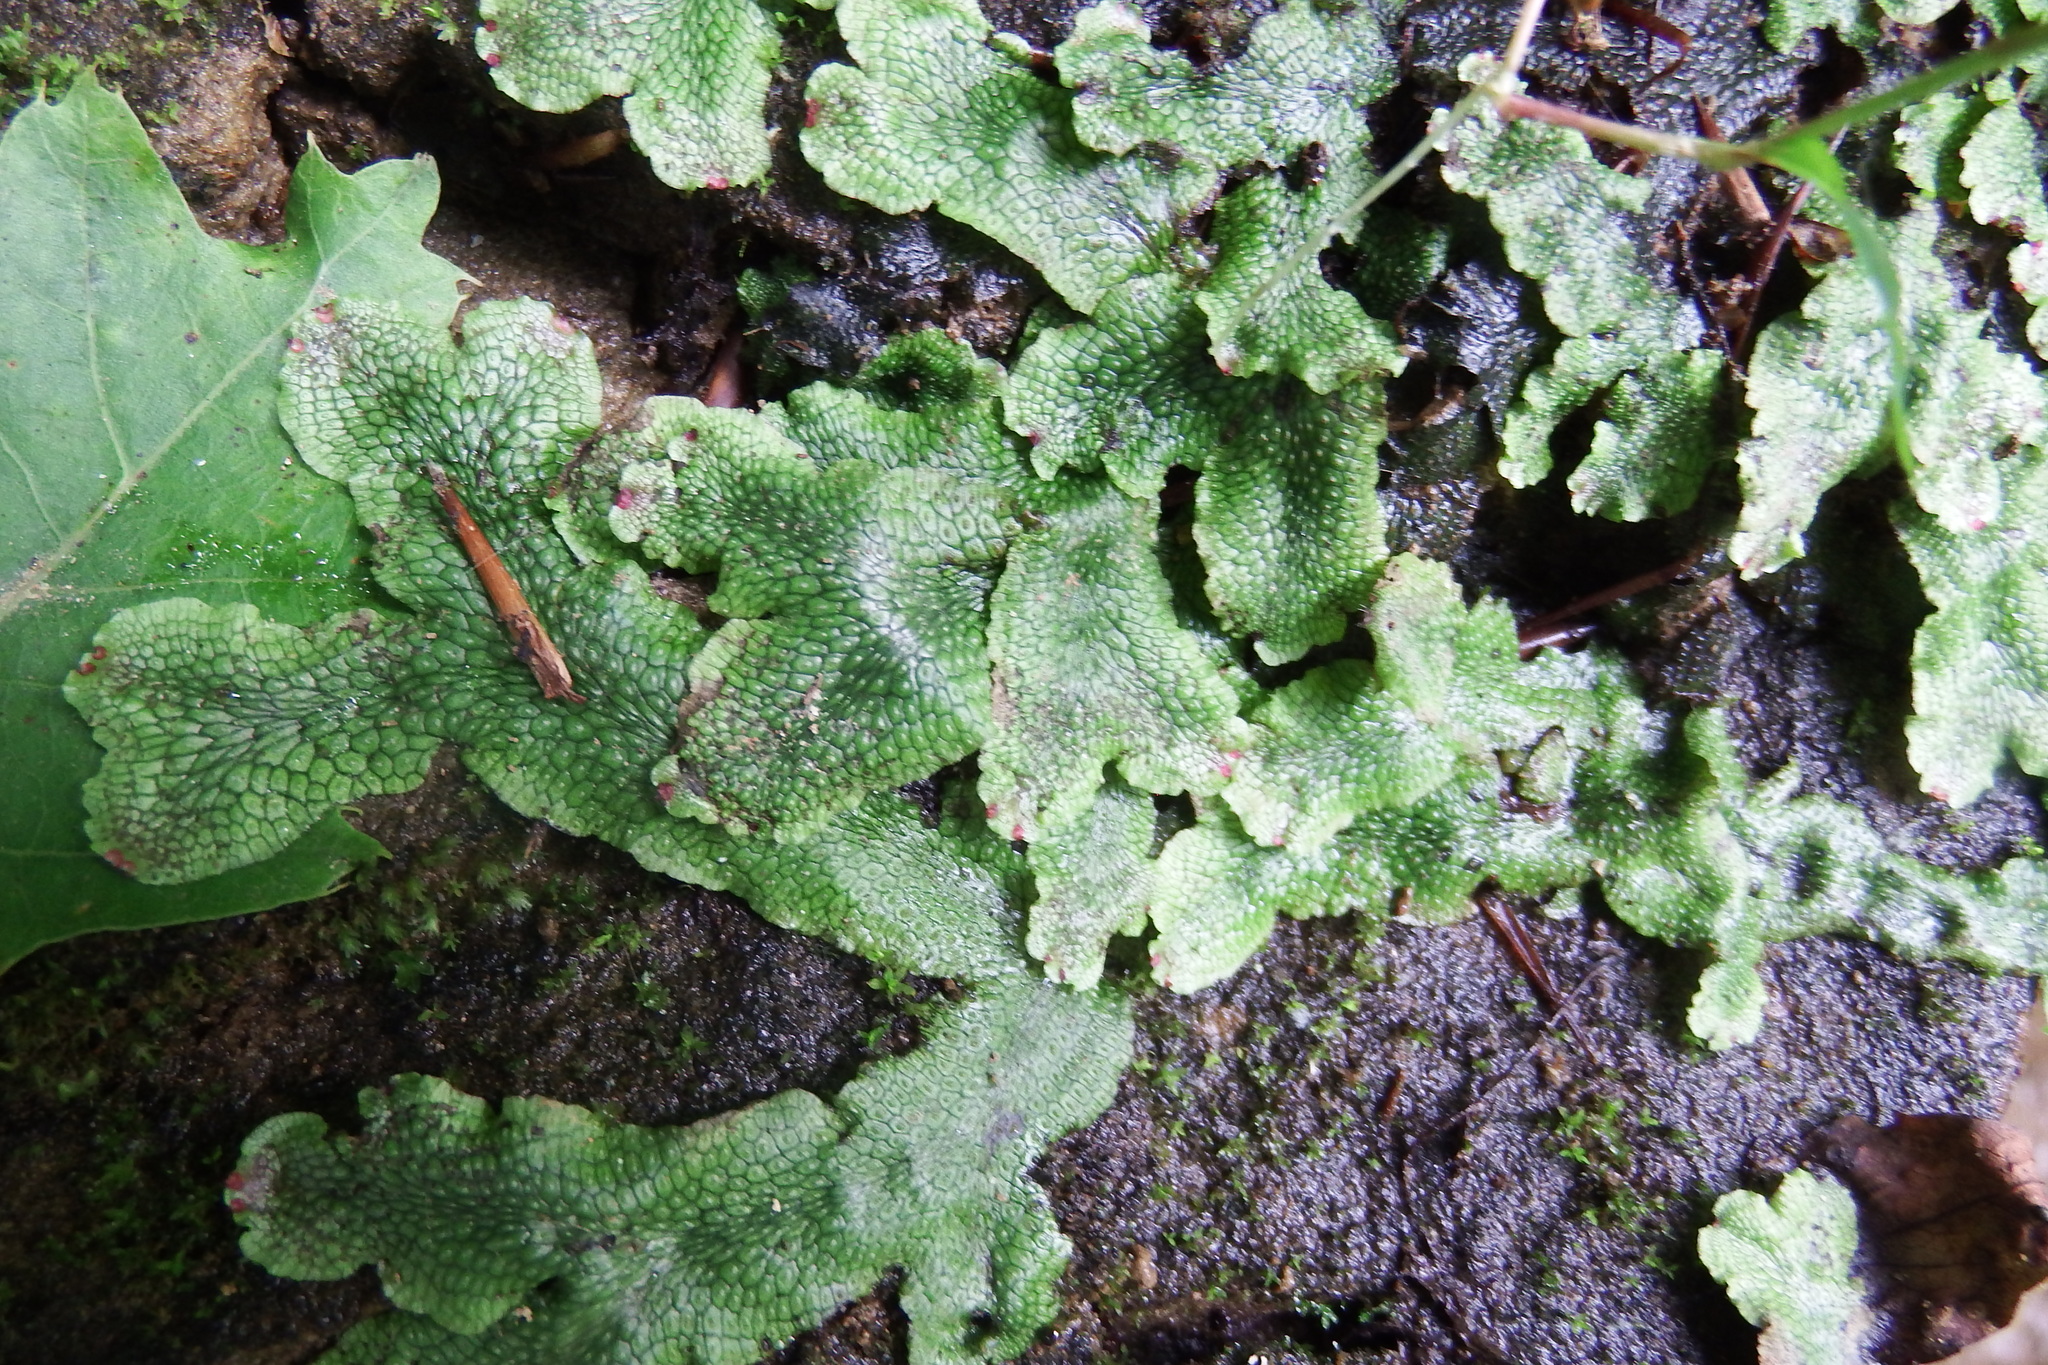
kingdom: Plantae
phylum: Marchantiophyta
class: Marchantiopsida
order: Marchantiales
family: Conocephalaceae
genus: Conocephalum
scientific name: Conocephalum salebrosum
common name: Cat-tongue liverwort
